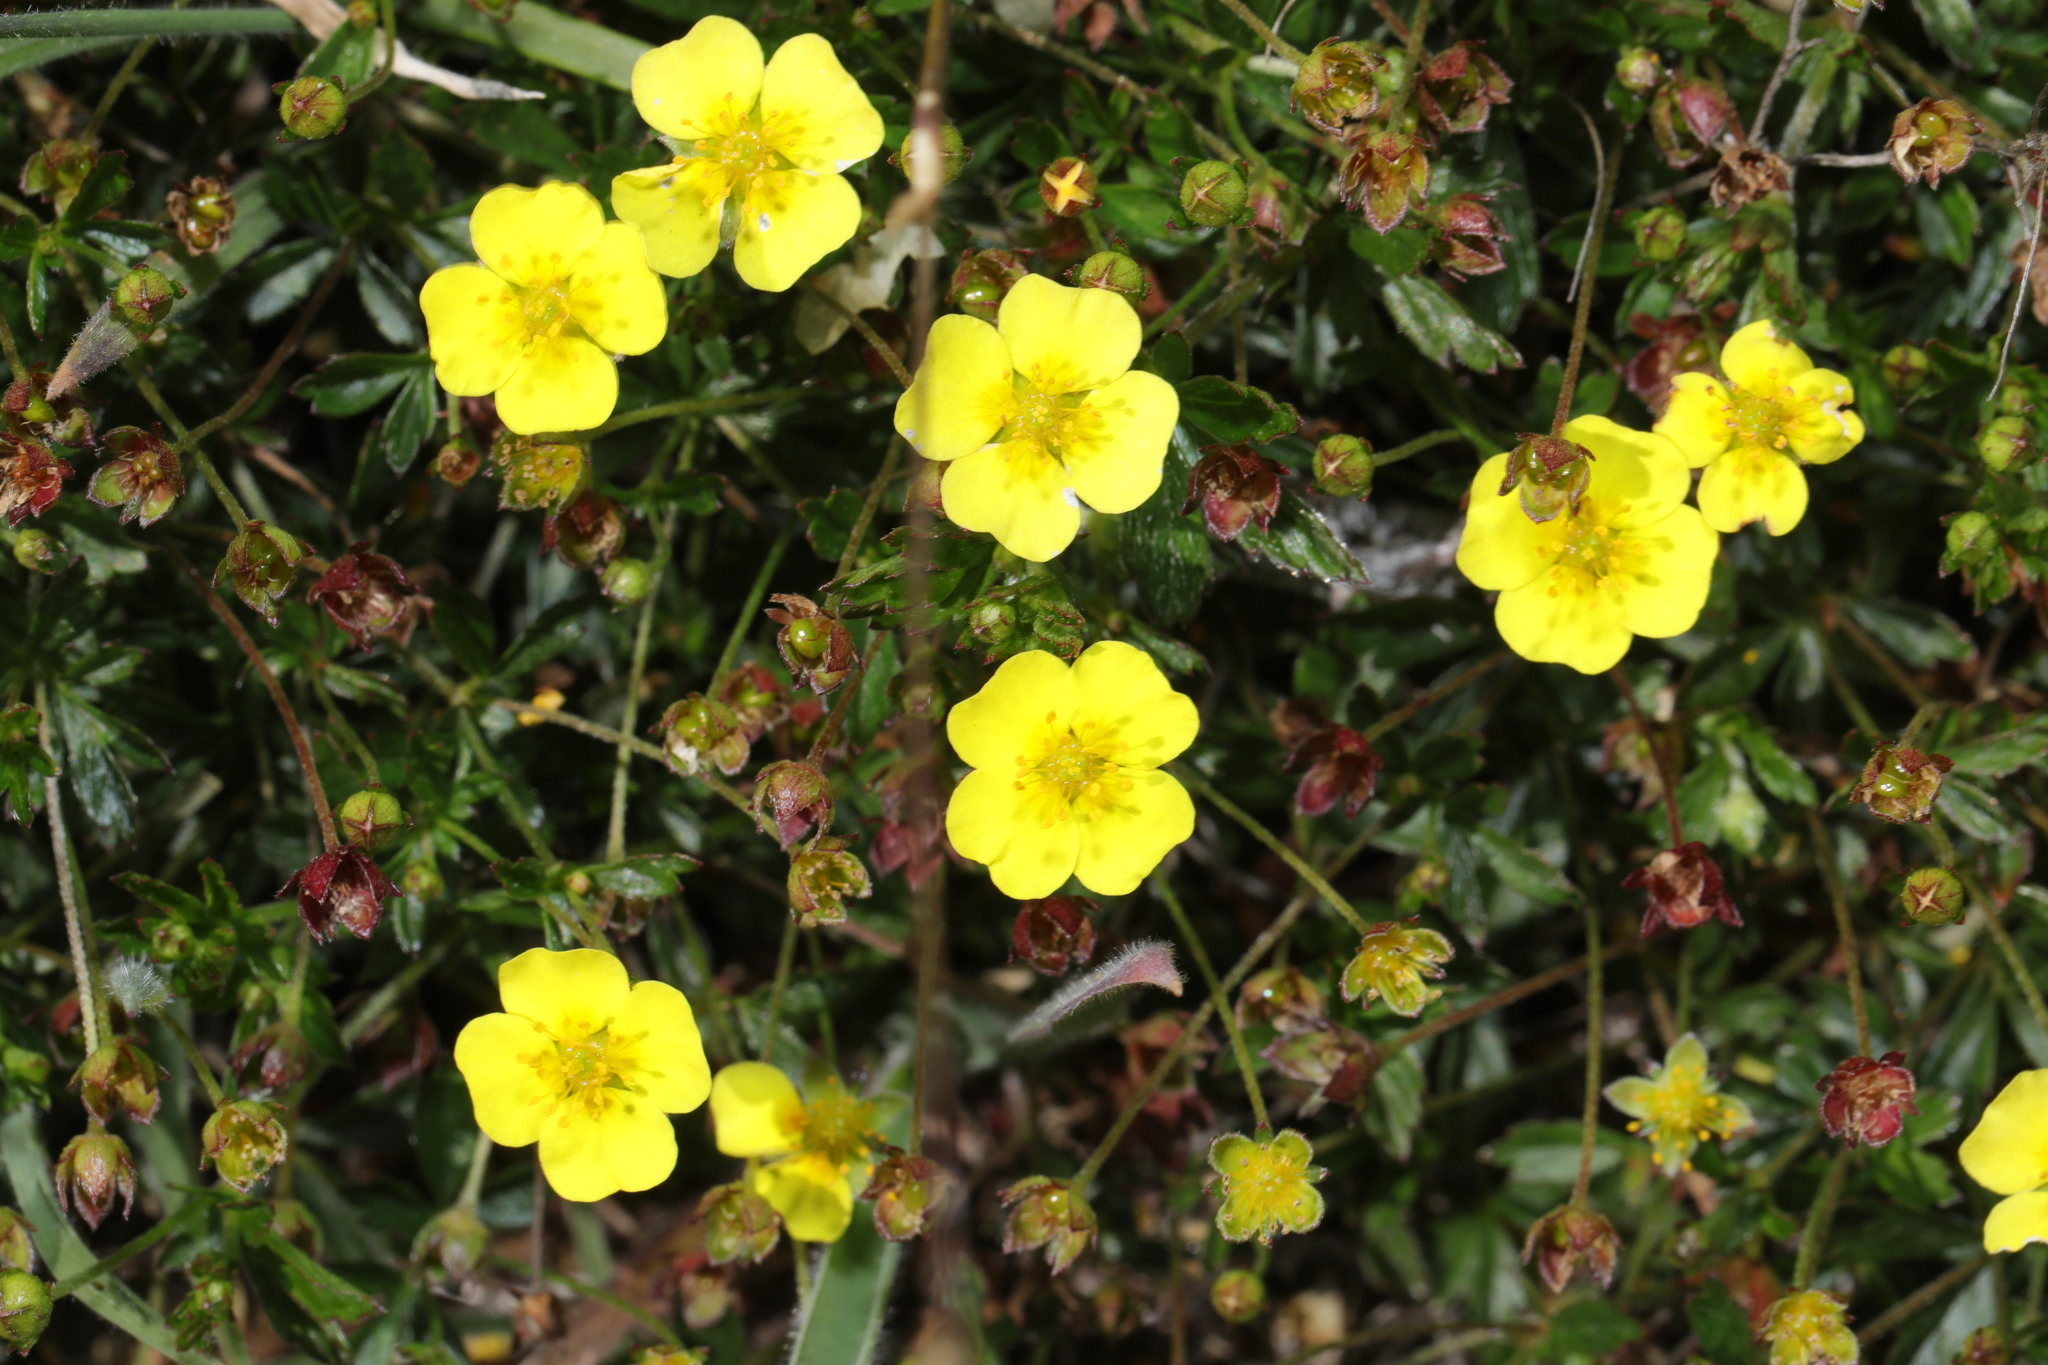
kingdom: Plantae
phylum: Tracheophyta
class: Magnoliopsida
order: Rosales
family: Rosaceae
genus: Potentilla
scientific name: Potentilla erecta
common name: Tormentil
